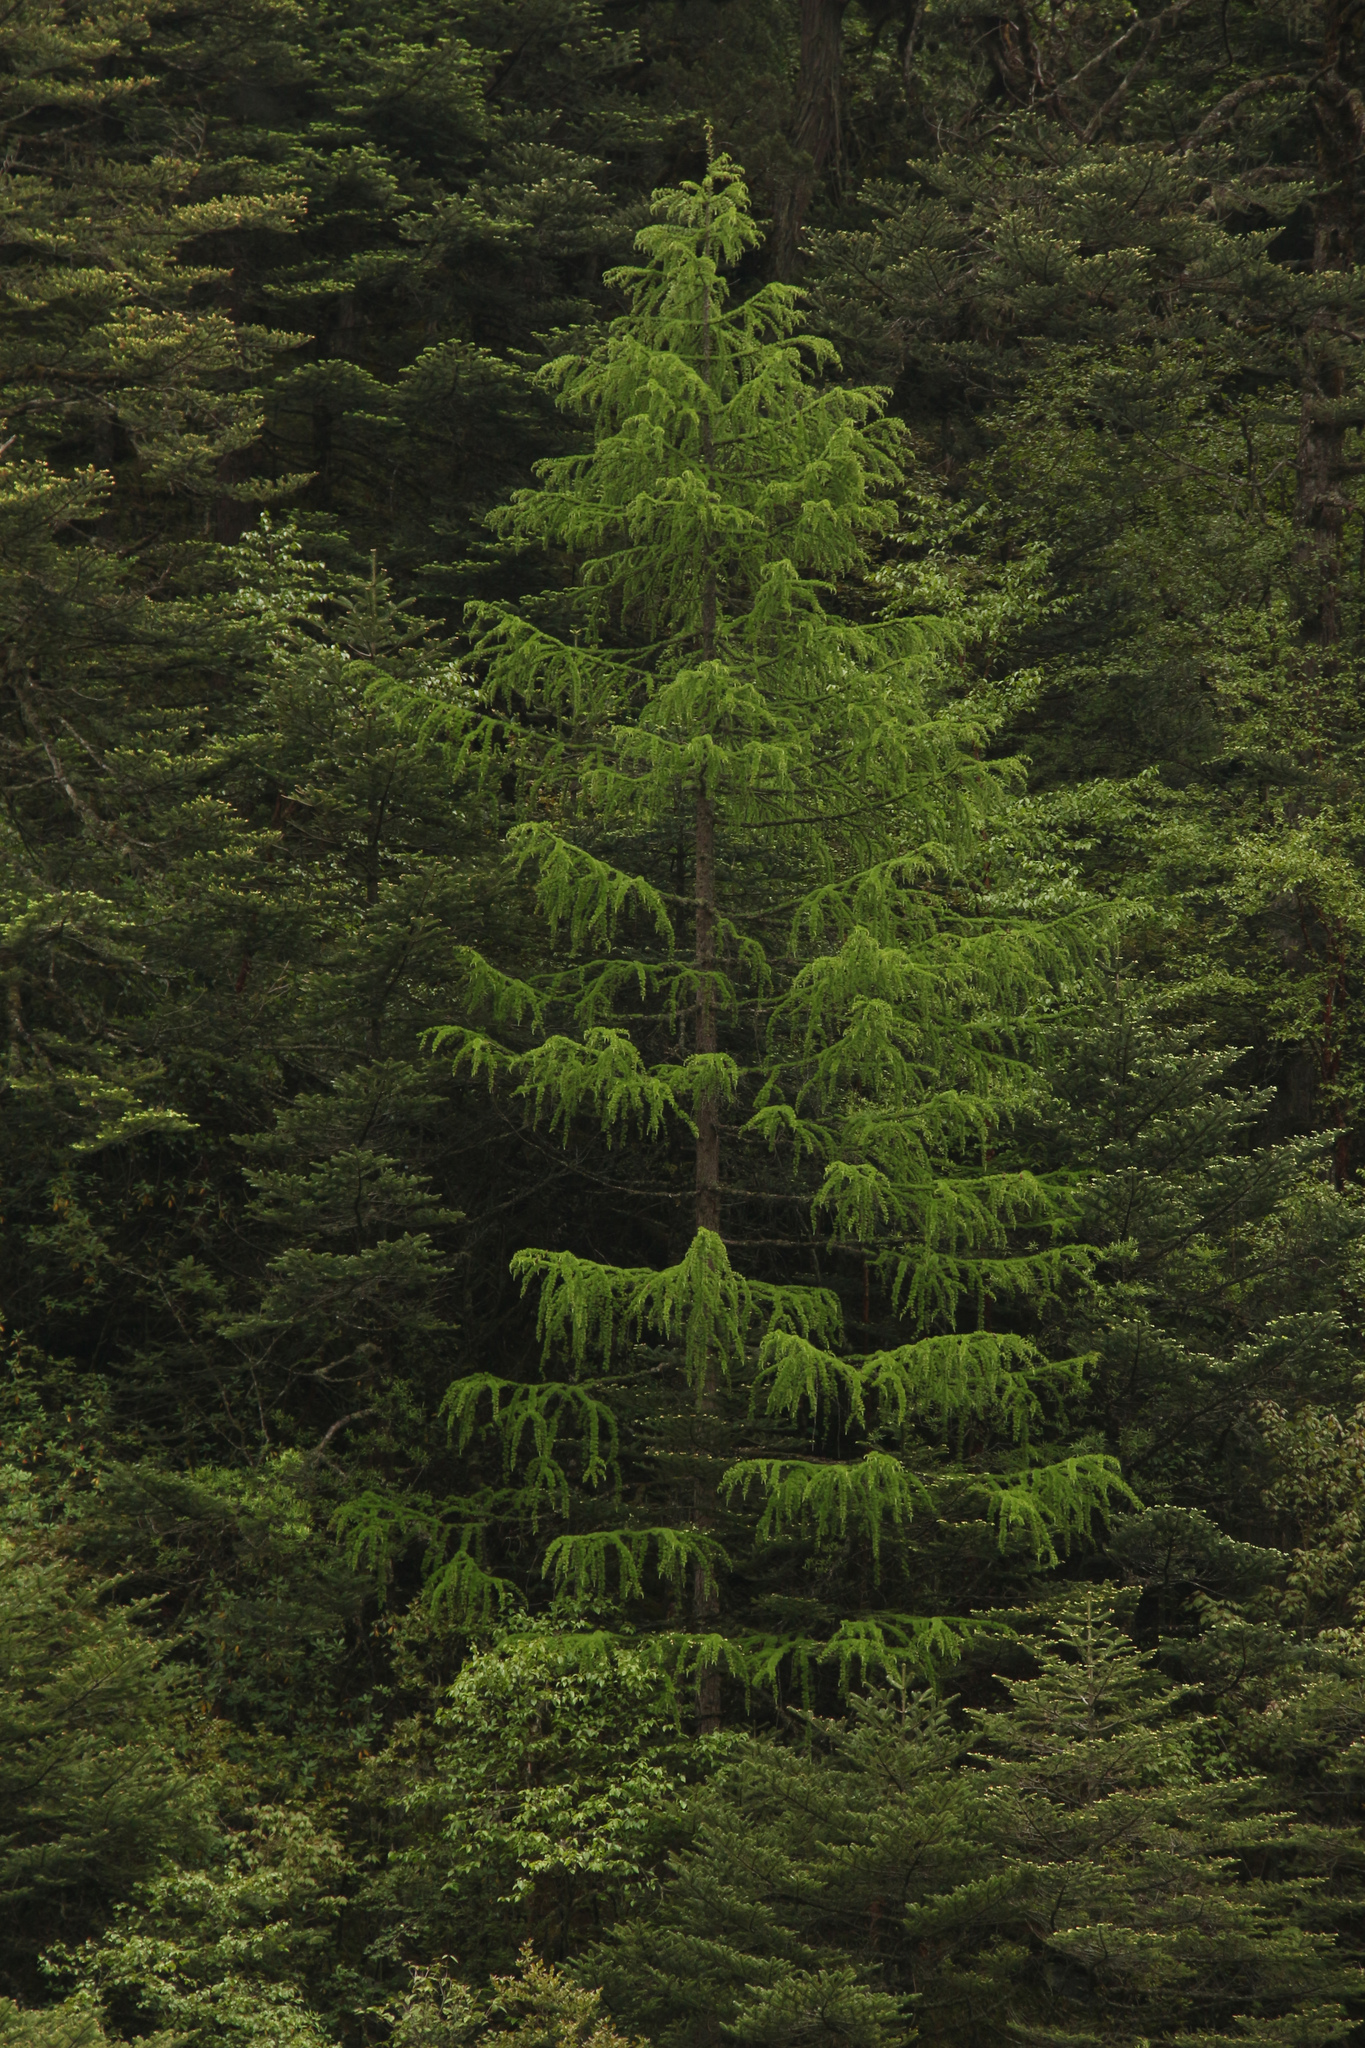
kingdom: Plantae
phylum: Tracheophyta
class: Pinopsida
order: Pinales
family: Pinaceae
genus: Larix
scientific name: Larix griffithii
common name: Sikkim larch
